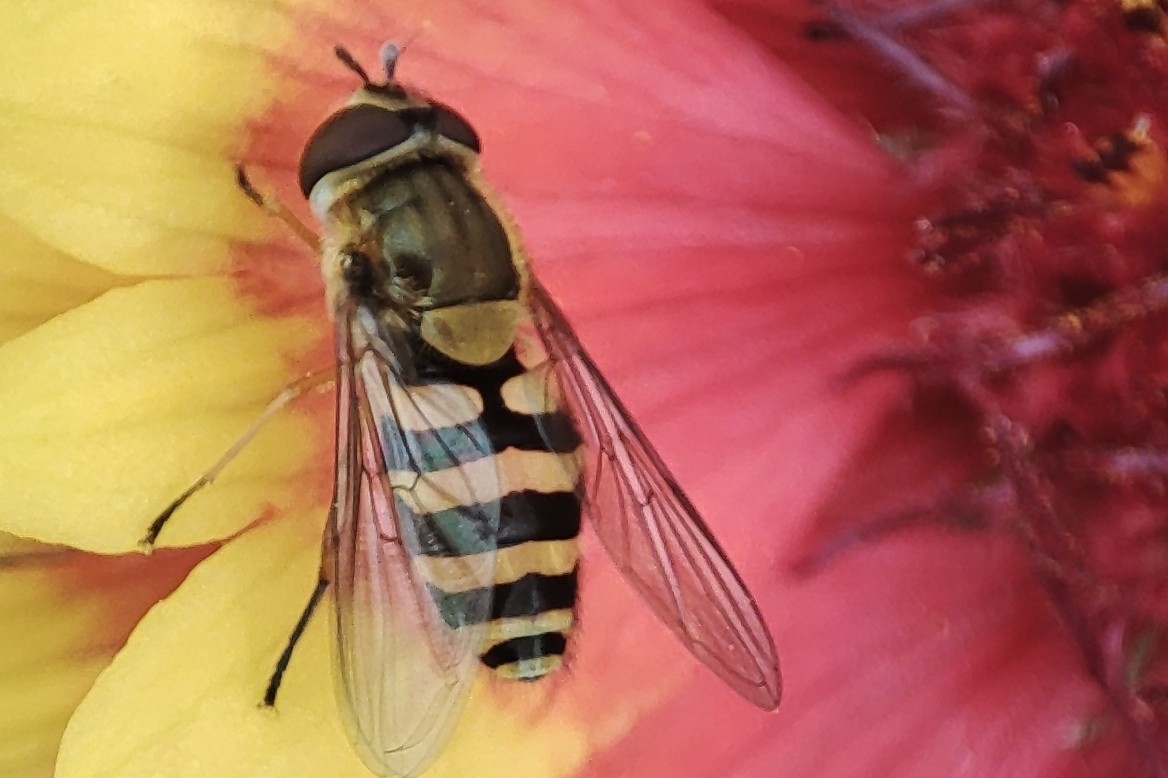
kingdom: Animalia
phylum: Arthropoda
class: Insecta
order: Diptera
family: Syrphidae
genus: Syrphus
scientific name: Syrphus
